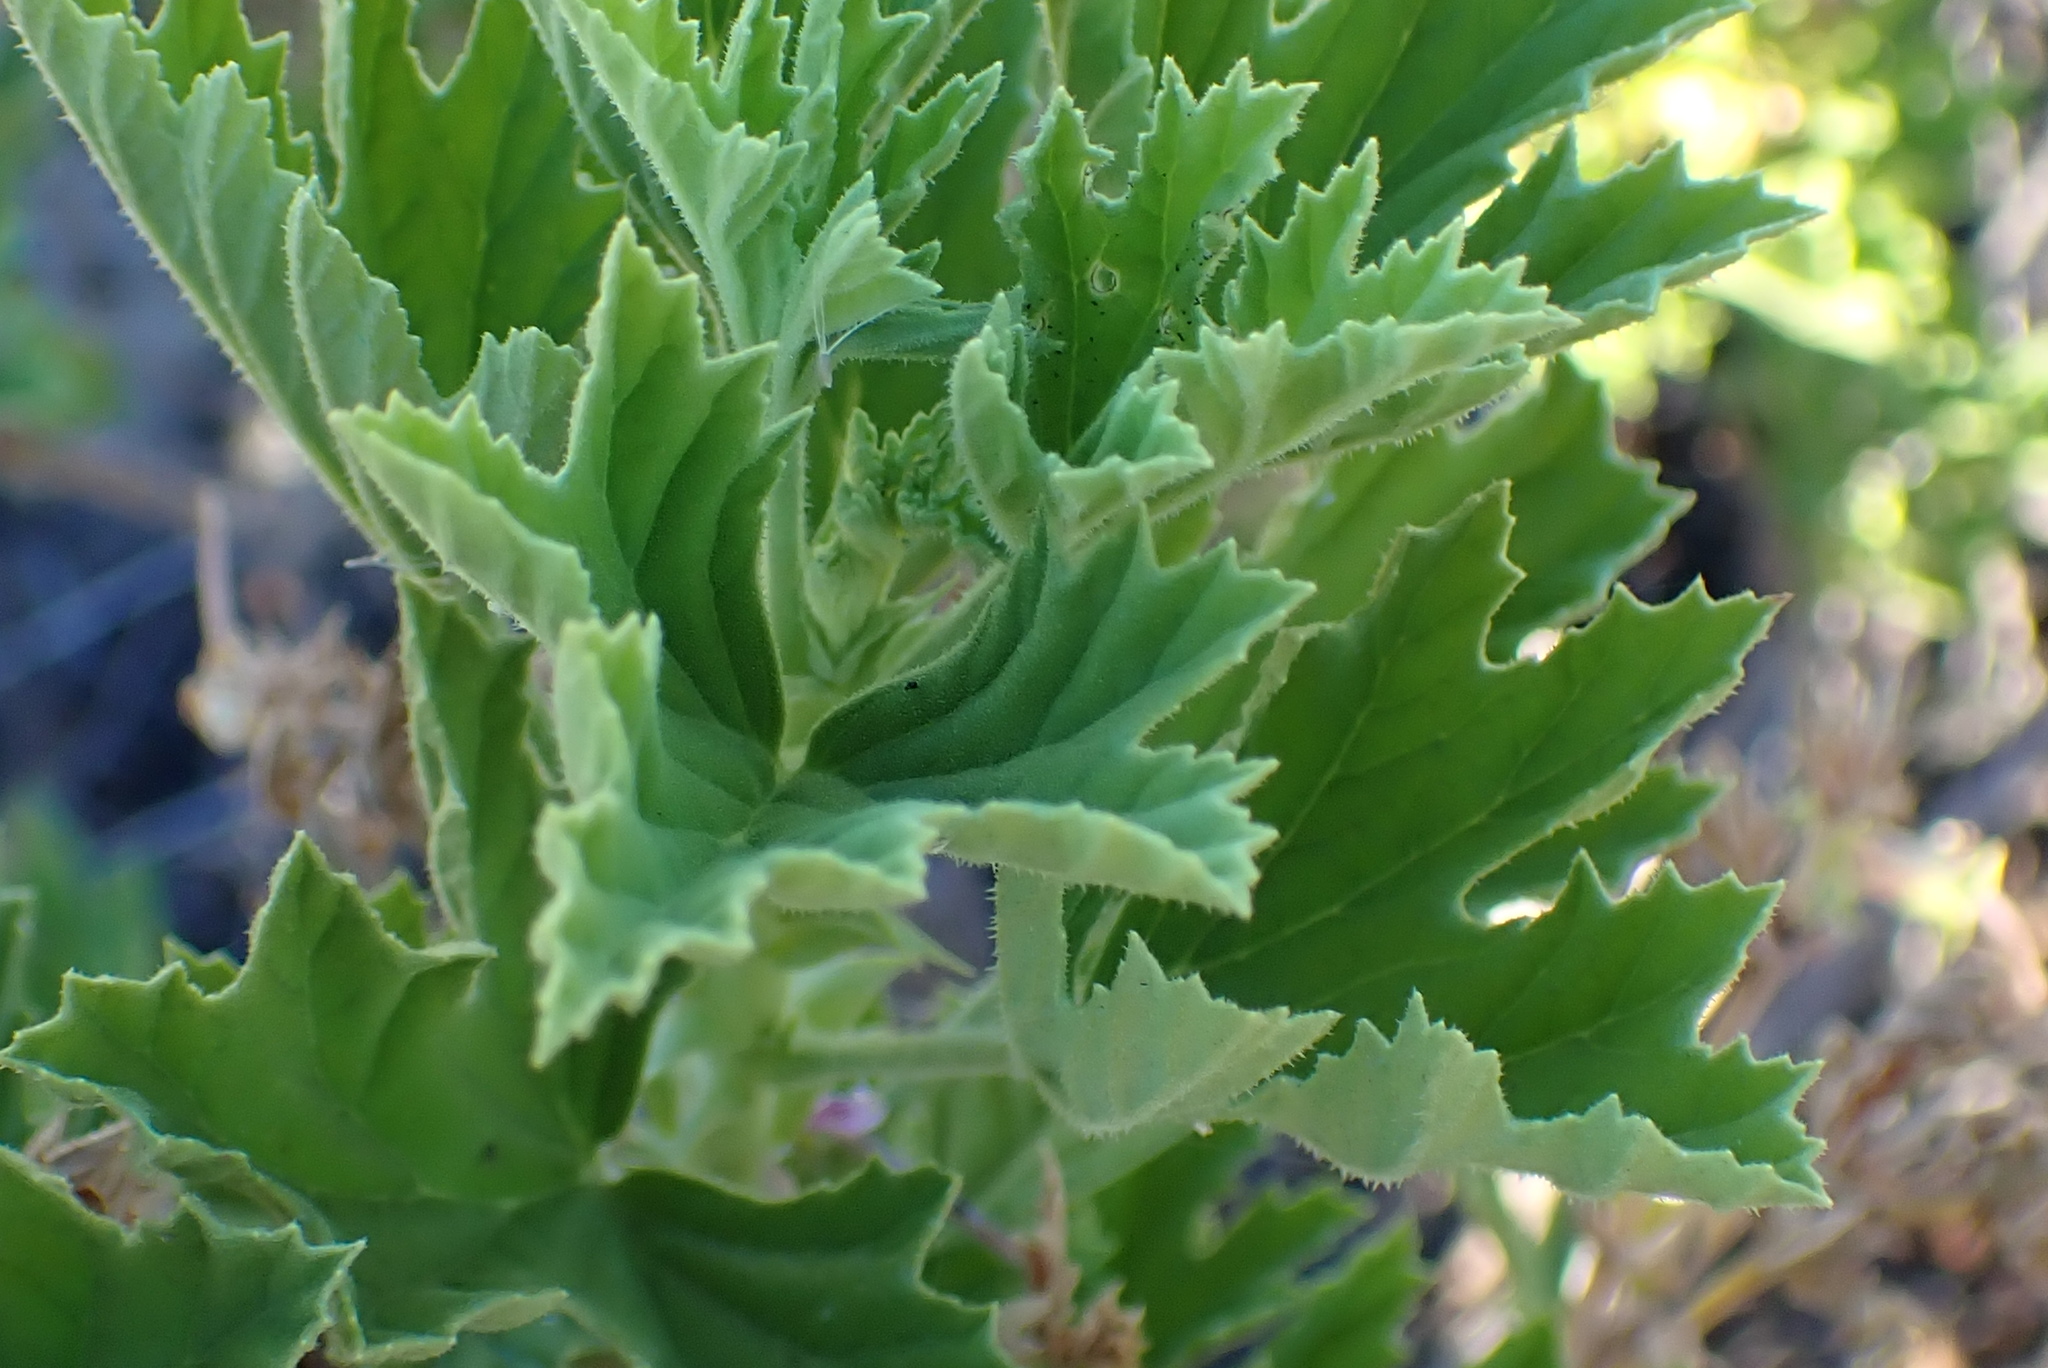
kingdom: Plantae
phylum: Tracheophyta
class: Magnoliopsida
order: Geraniales
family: Geraniaceae
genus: Pelargonium
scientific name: Pelargonium ribifolium
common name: Currant-leaf pelargonium
